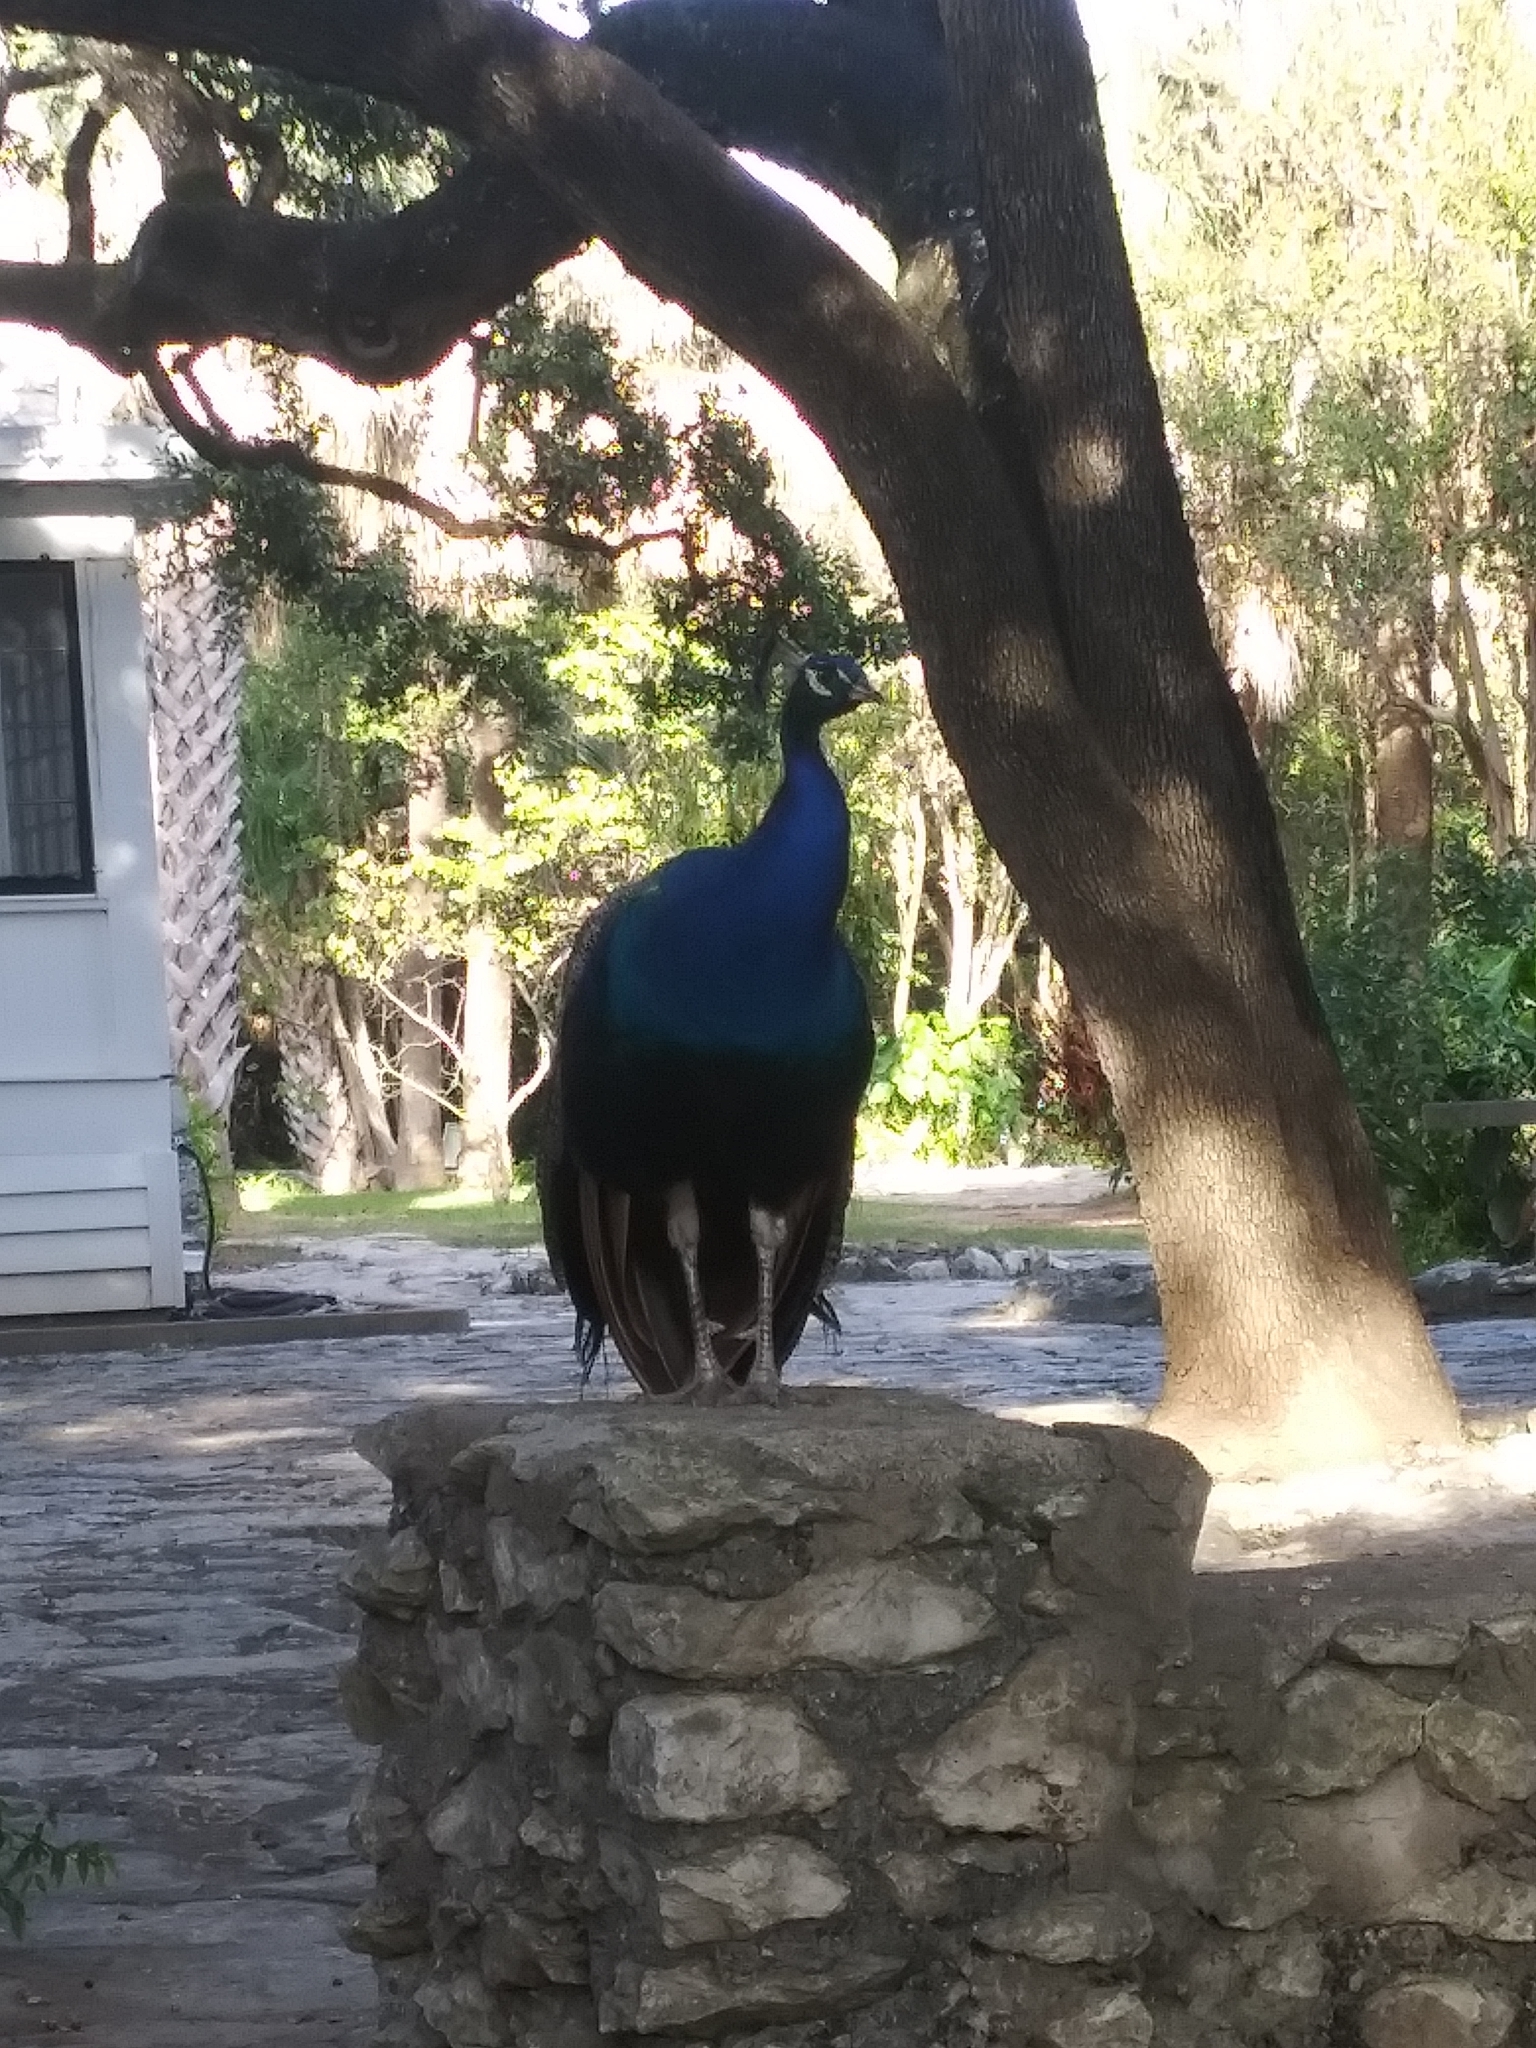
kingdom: Animalia
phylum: Chordata
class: Aves
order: Galliformes
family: Phasianidae
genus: Pavo
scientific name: Pavo cristatus
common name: Indian peafowl
